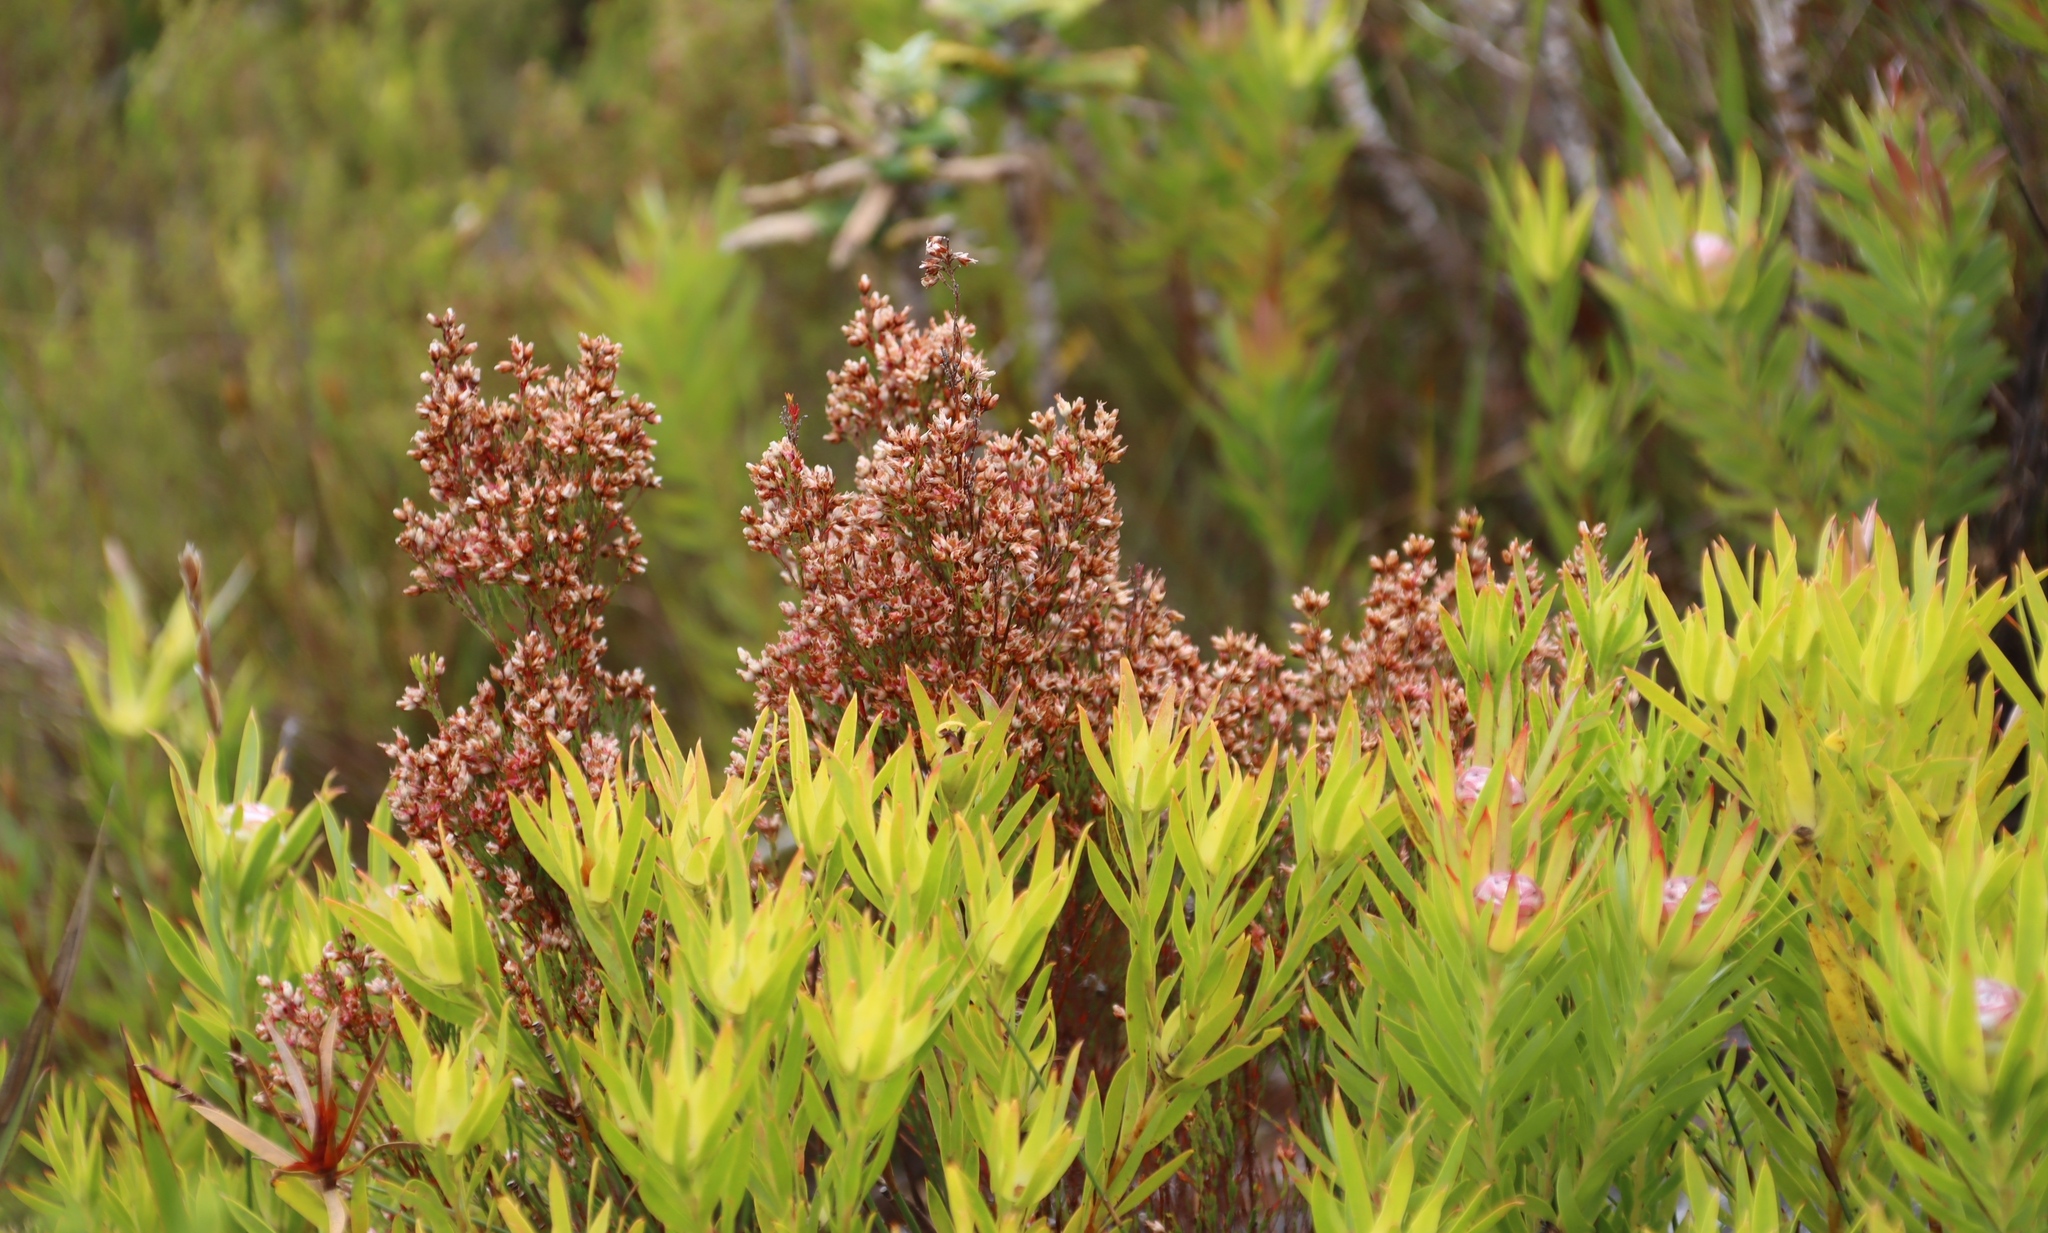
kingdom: Plantae
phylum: Tracheophyta
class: Magnoliopsida
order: Ericales
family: Ericaceae
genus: Erica
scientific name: Erica lutea
